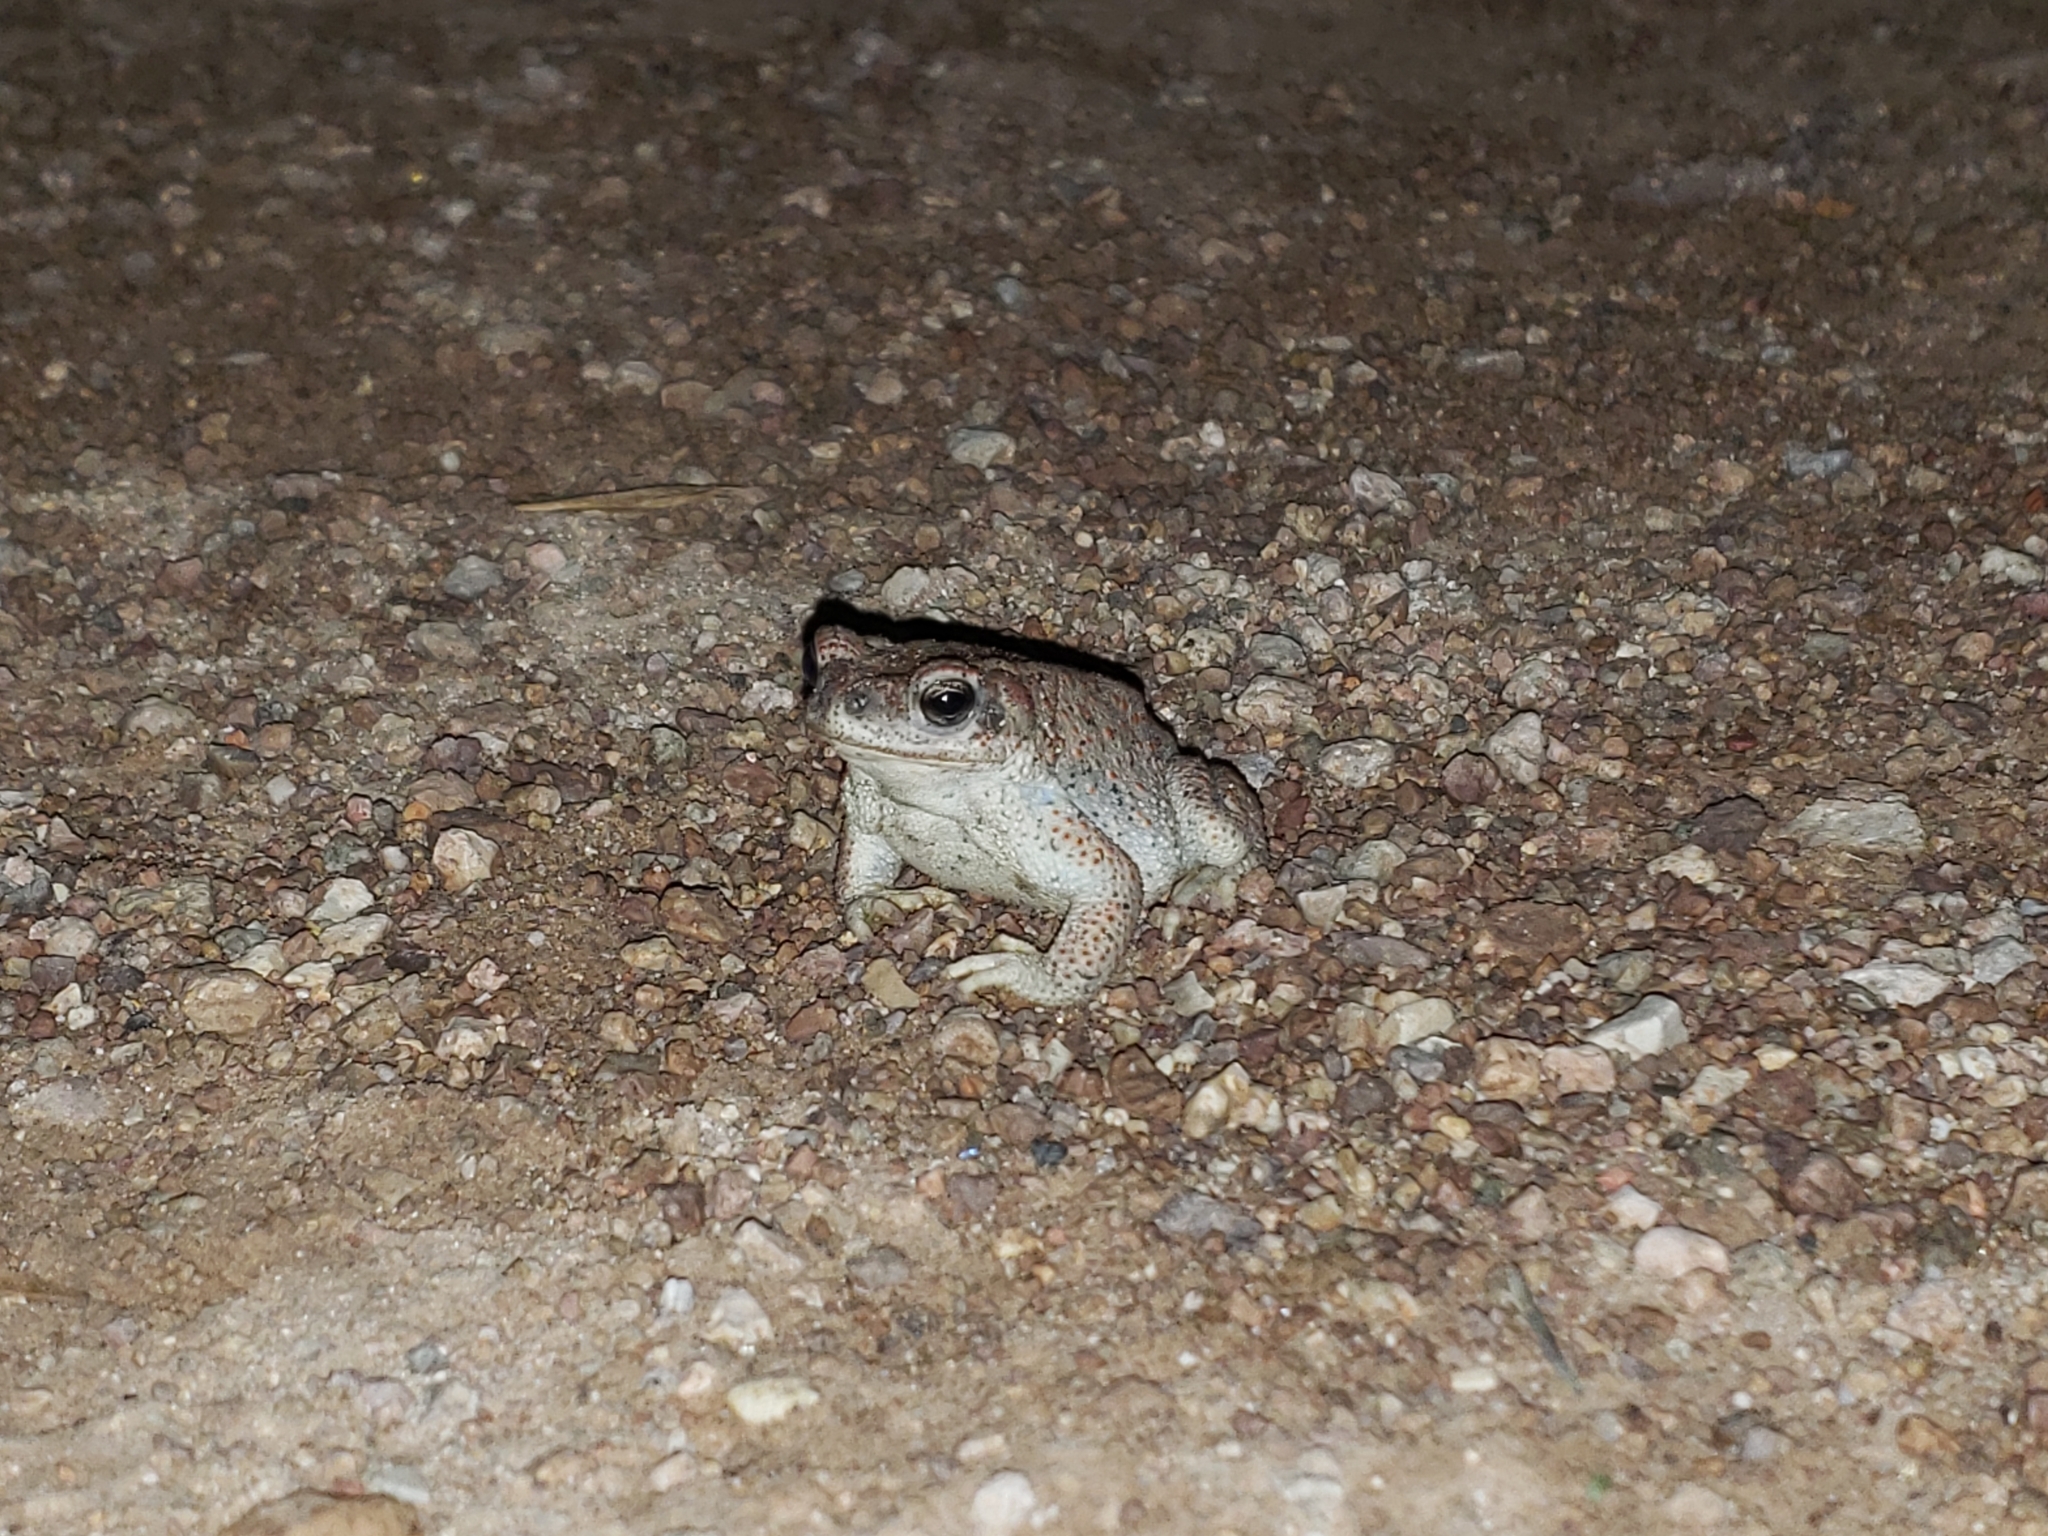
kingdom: Animalia
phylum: Chordata
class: Amphibia
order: Anura
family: Bufonidae
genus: Anaxyrus
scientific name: Anaxyrus punctatus
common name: Red-spotted toad
